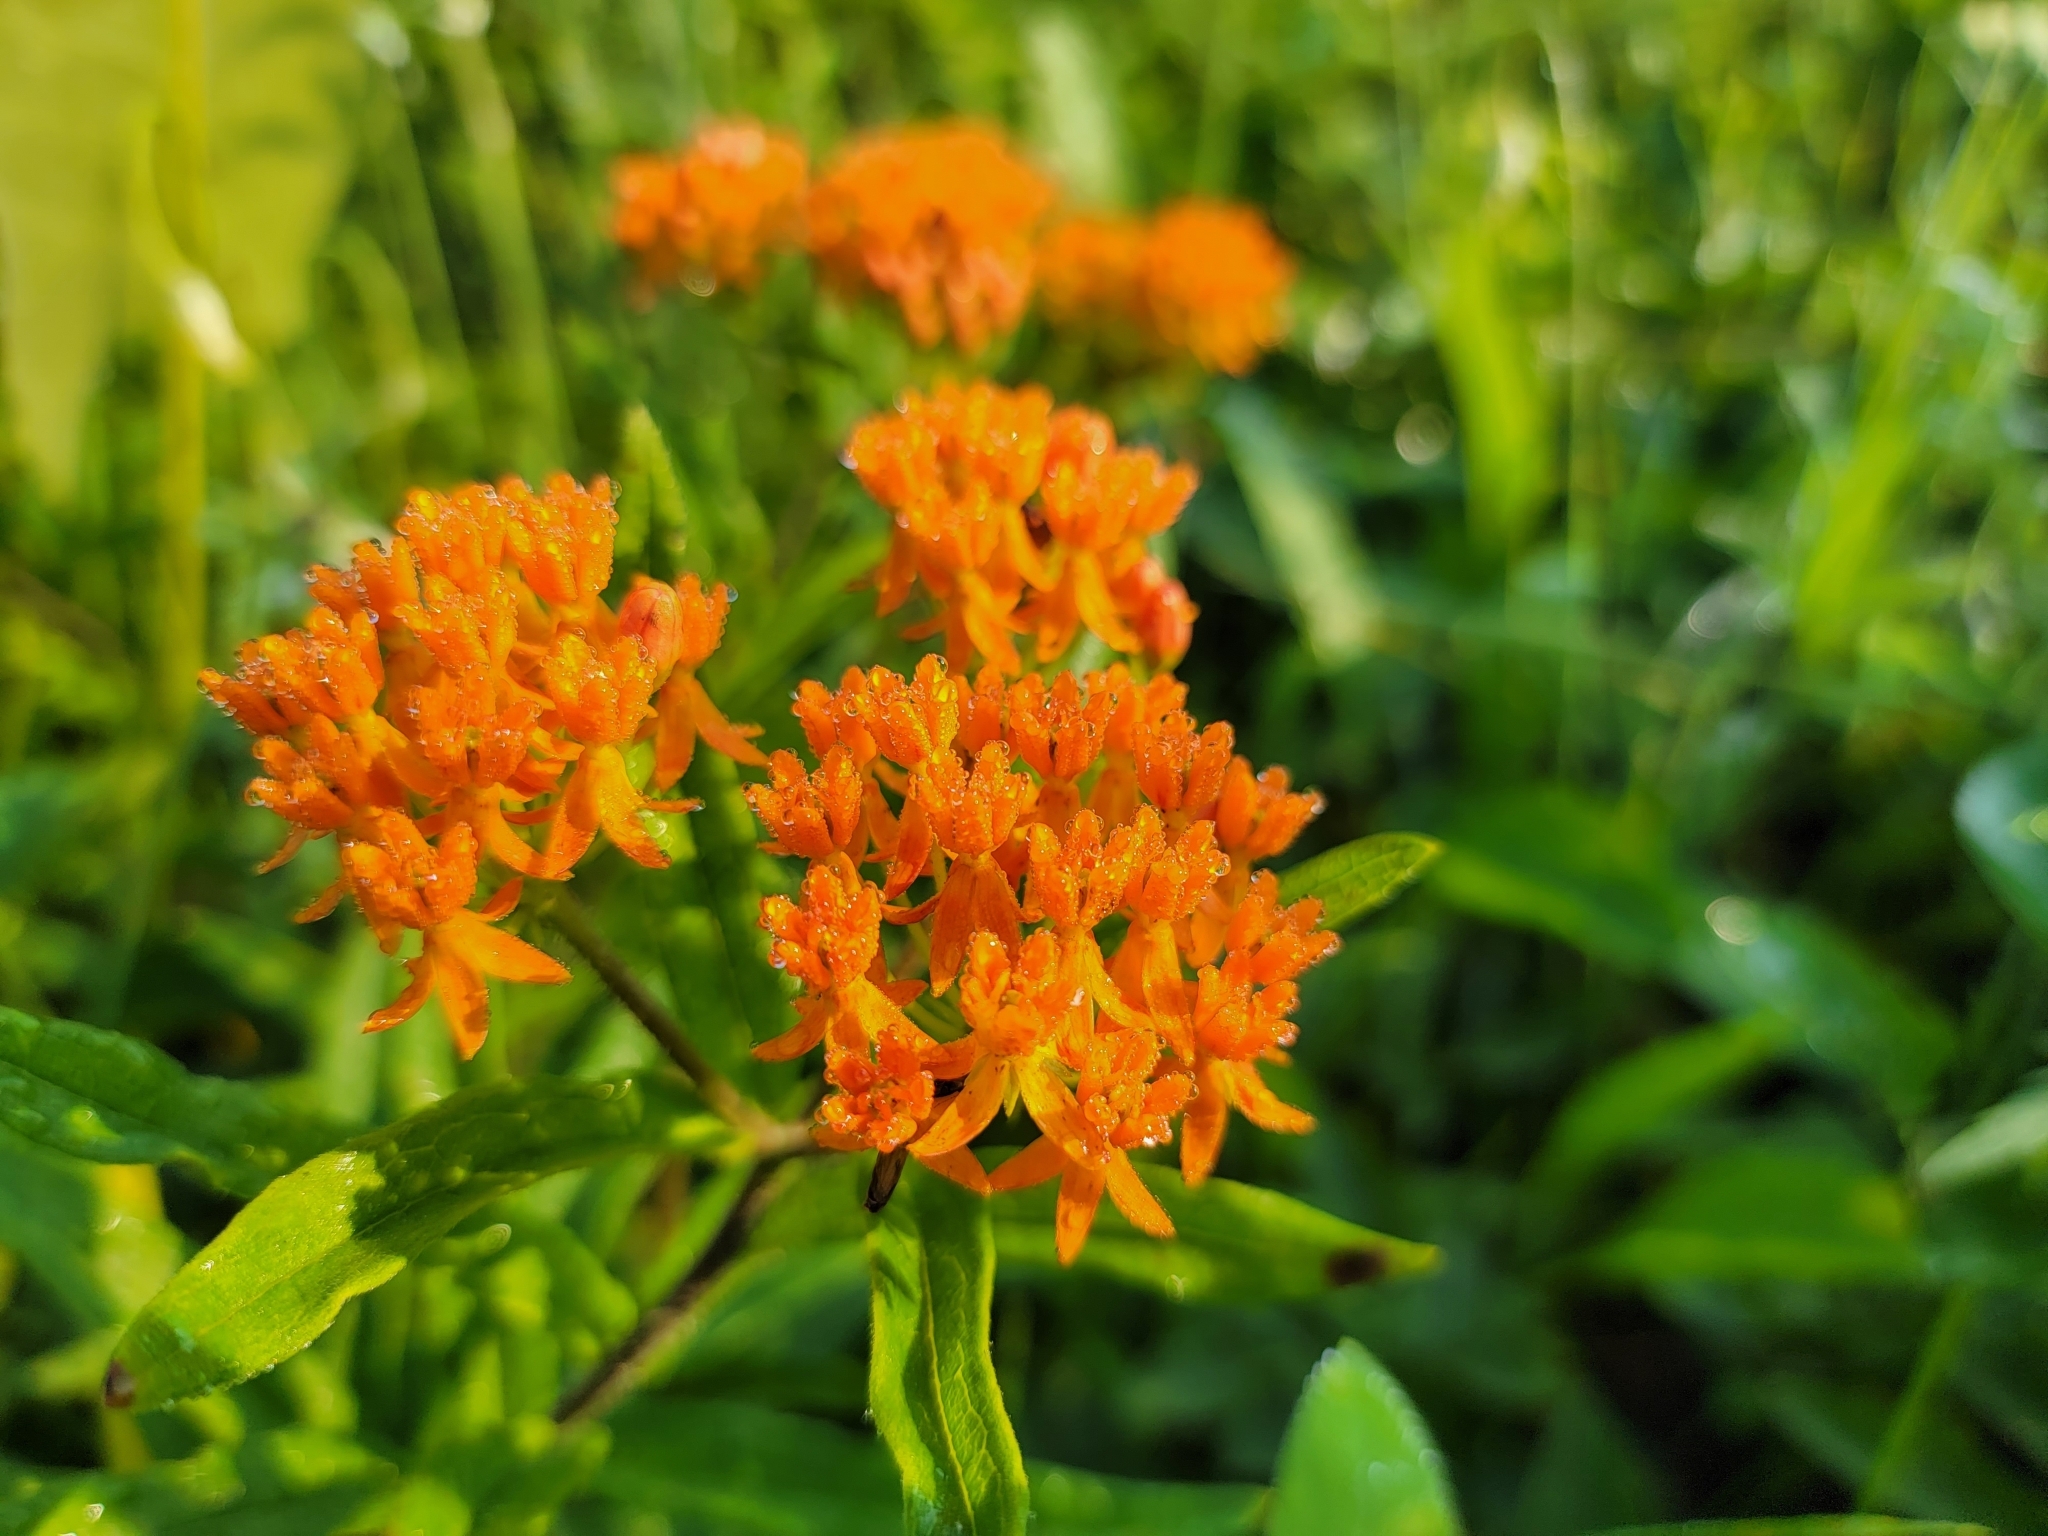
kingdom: Plantae
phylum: Tracheophyta
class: Magnoliopsida
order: Gentianales
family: Apocynaceae
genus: Asclepias
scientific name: Asclepias tuberosa
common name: Butterfly milkweed
